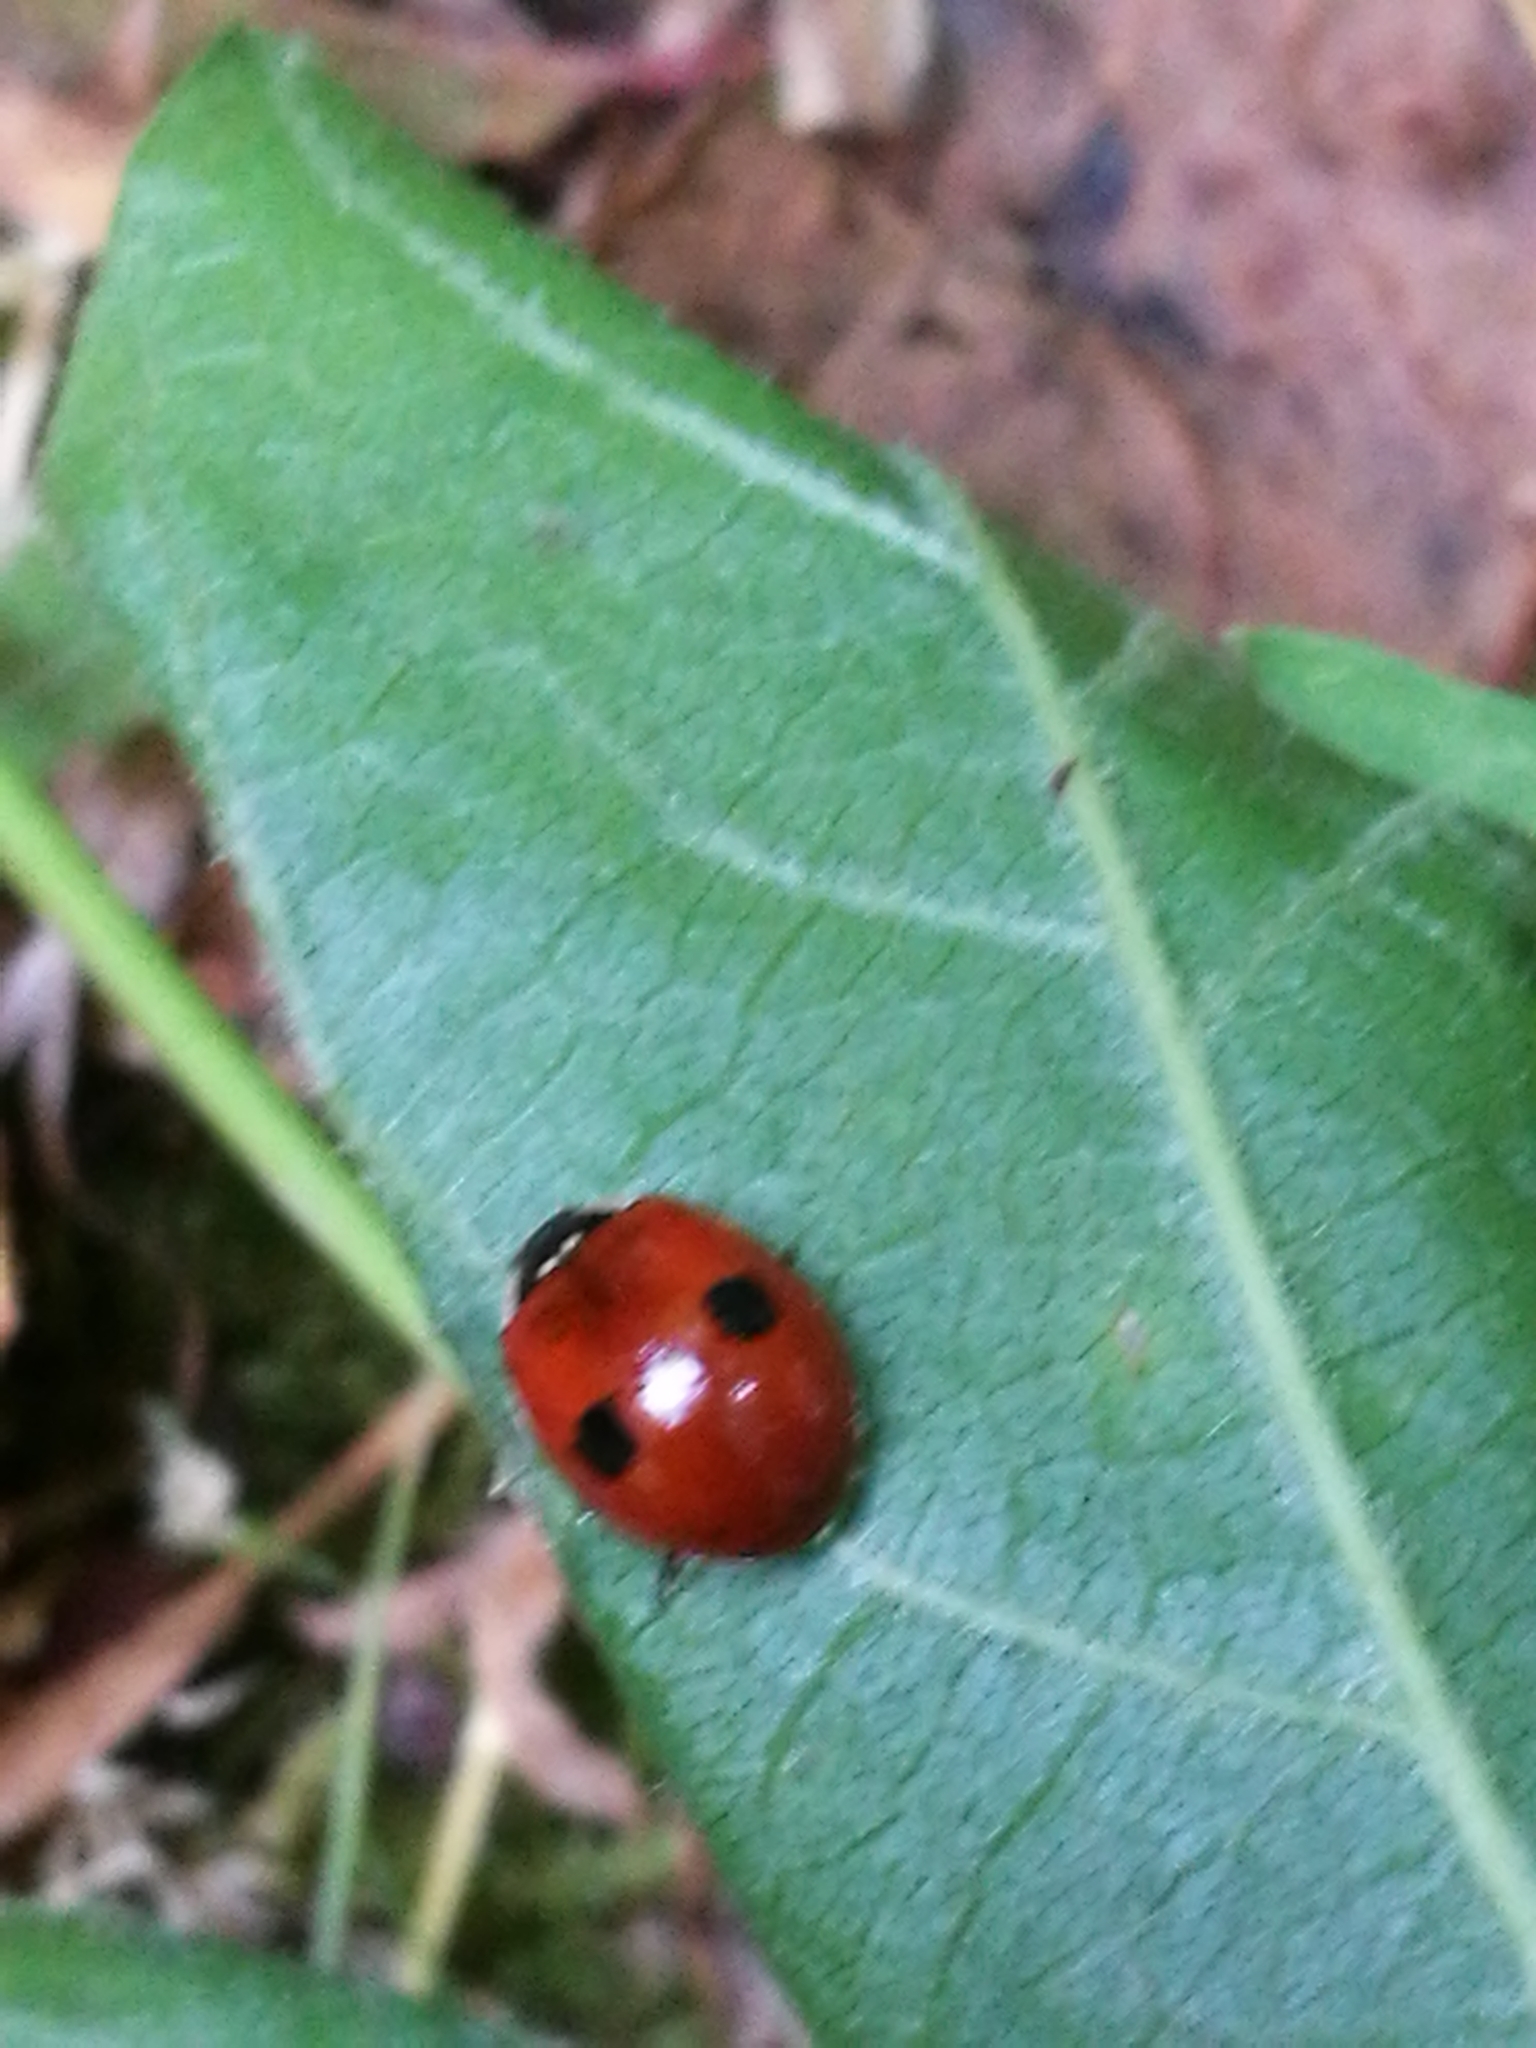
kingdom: Animalia
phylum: Arthropoda
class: Insecta
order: Coleoptera
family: Coccinellidae
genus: Adalia
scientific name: Adalia bipunctata
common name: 2-spot ladybird
